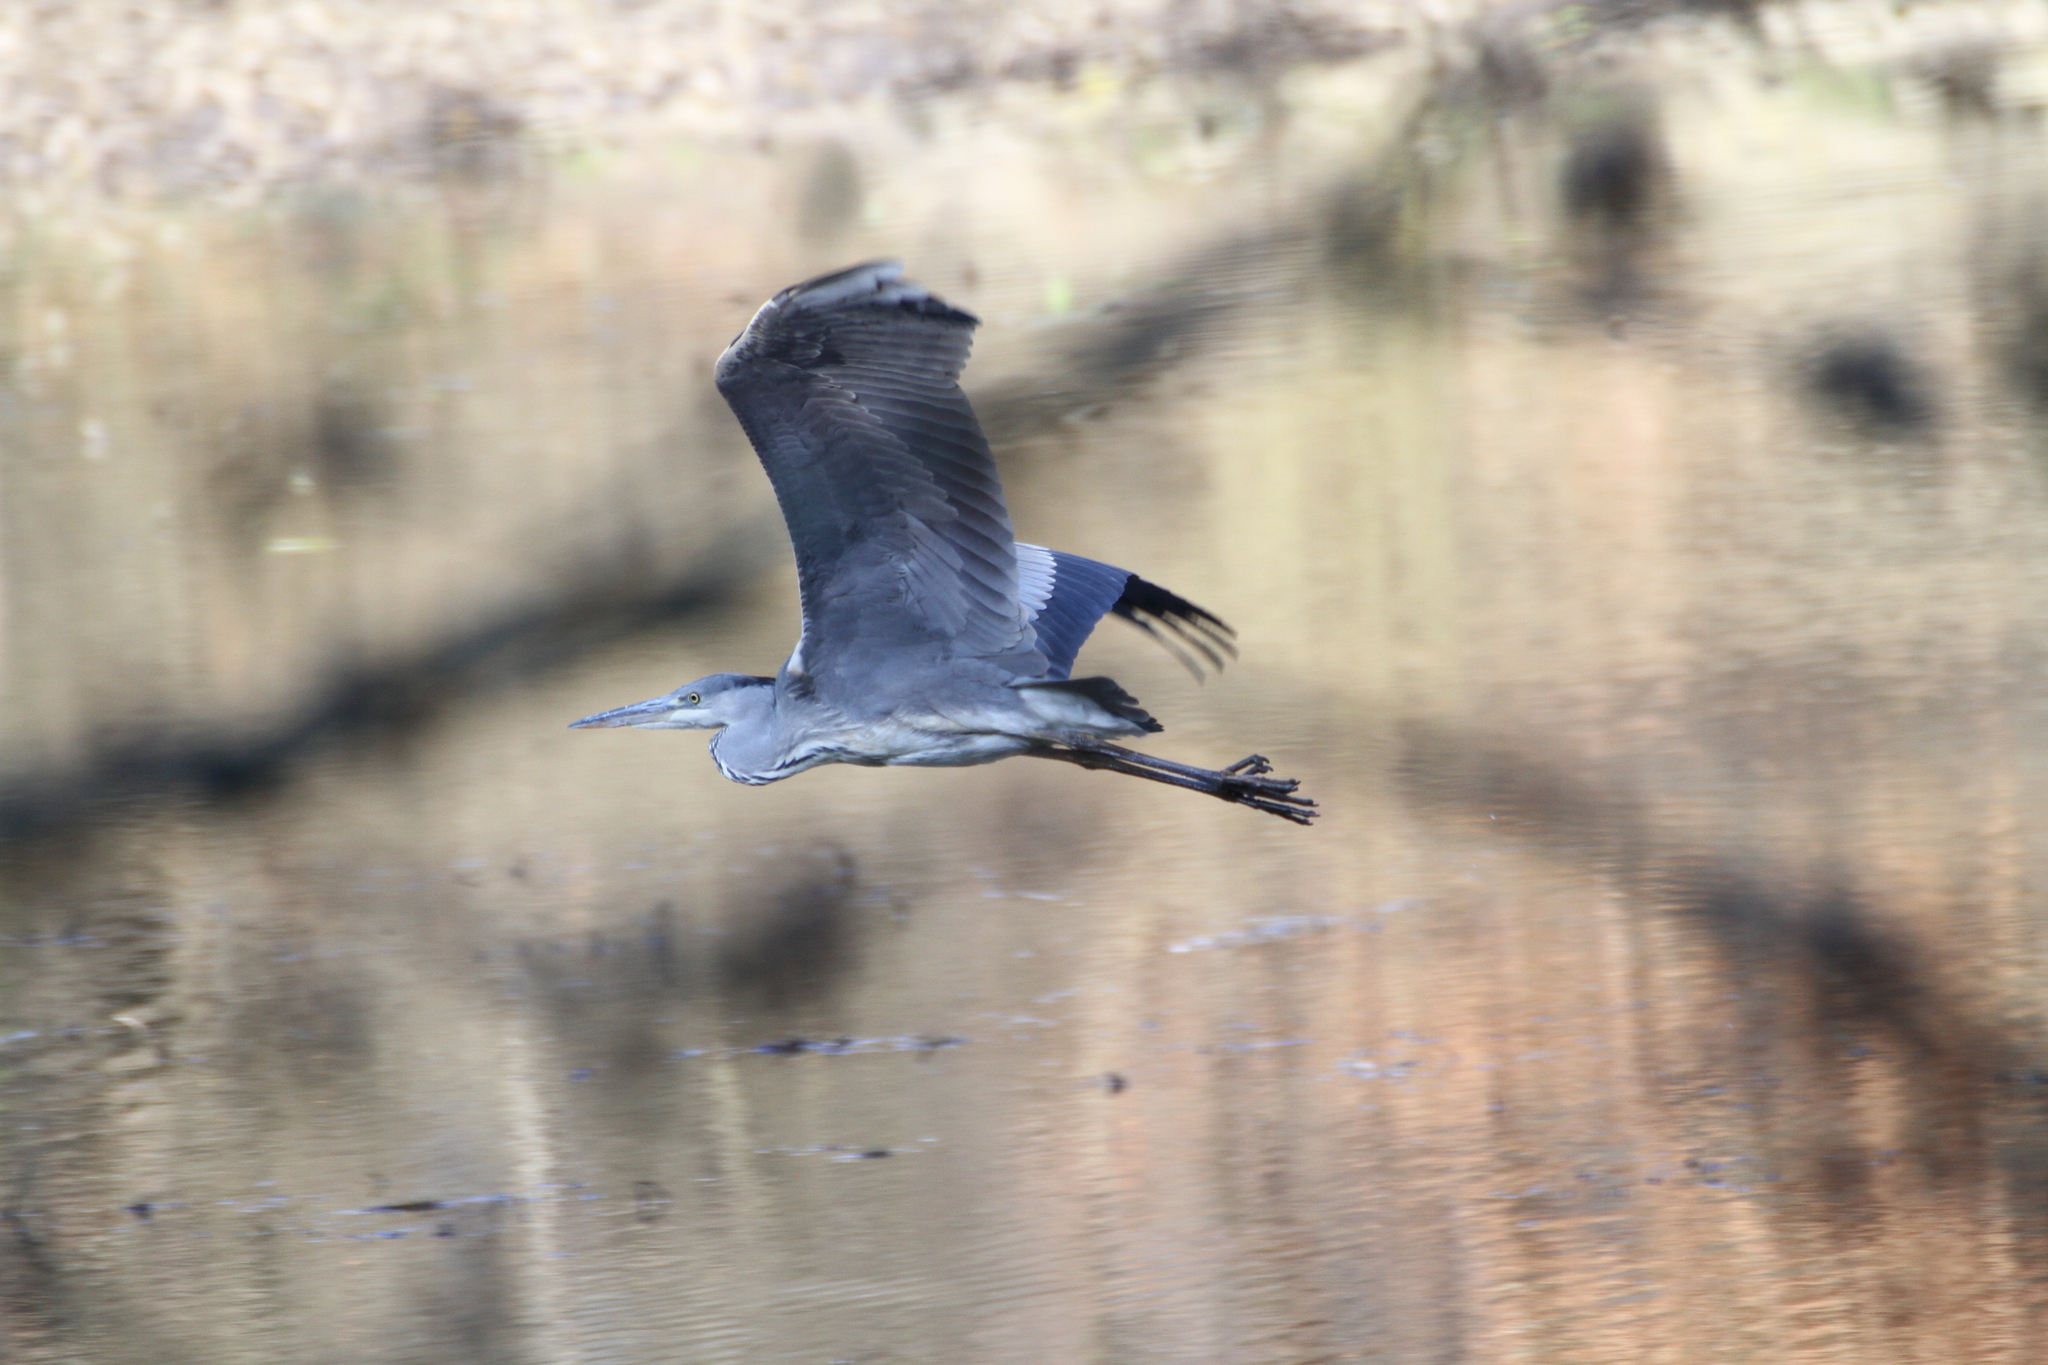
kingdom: Animalia
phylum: Chordata
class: Aves
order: Pelecaniformes
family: Ardeidae
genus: Ardea
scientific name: Ardea cinerea
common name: Grey heron
